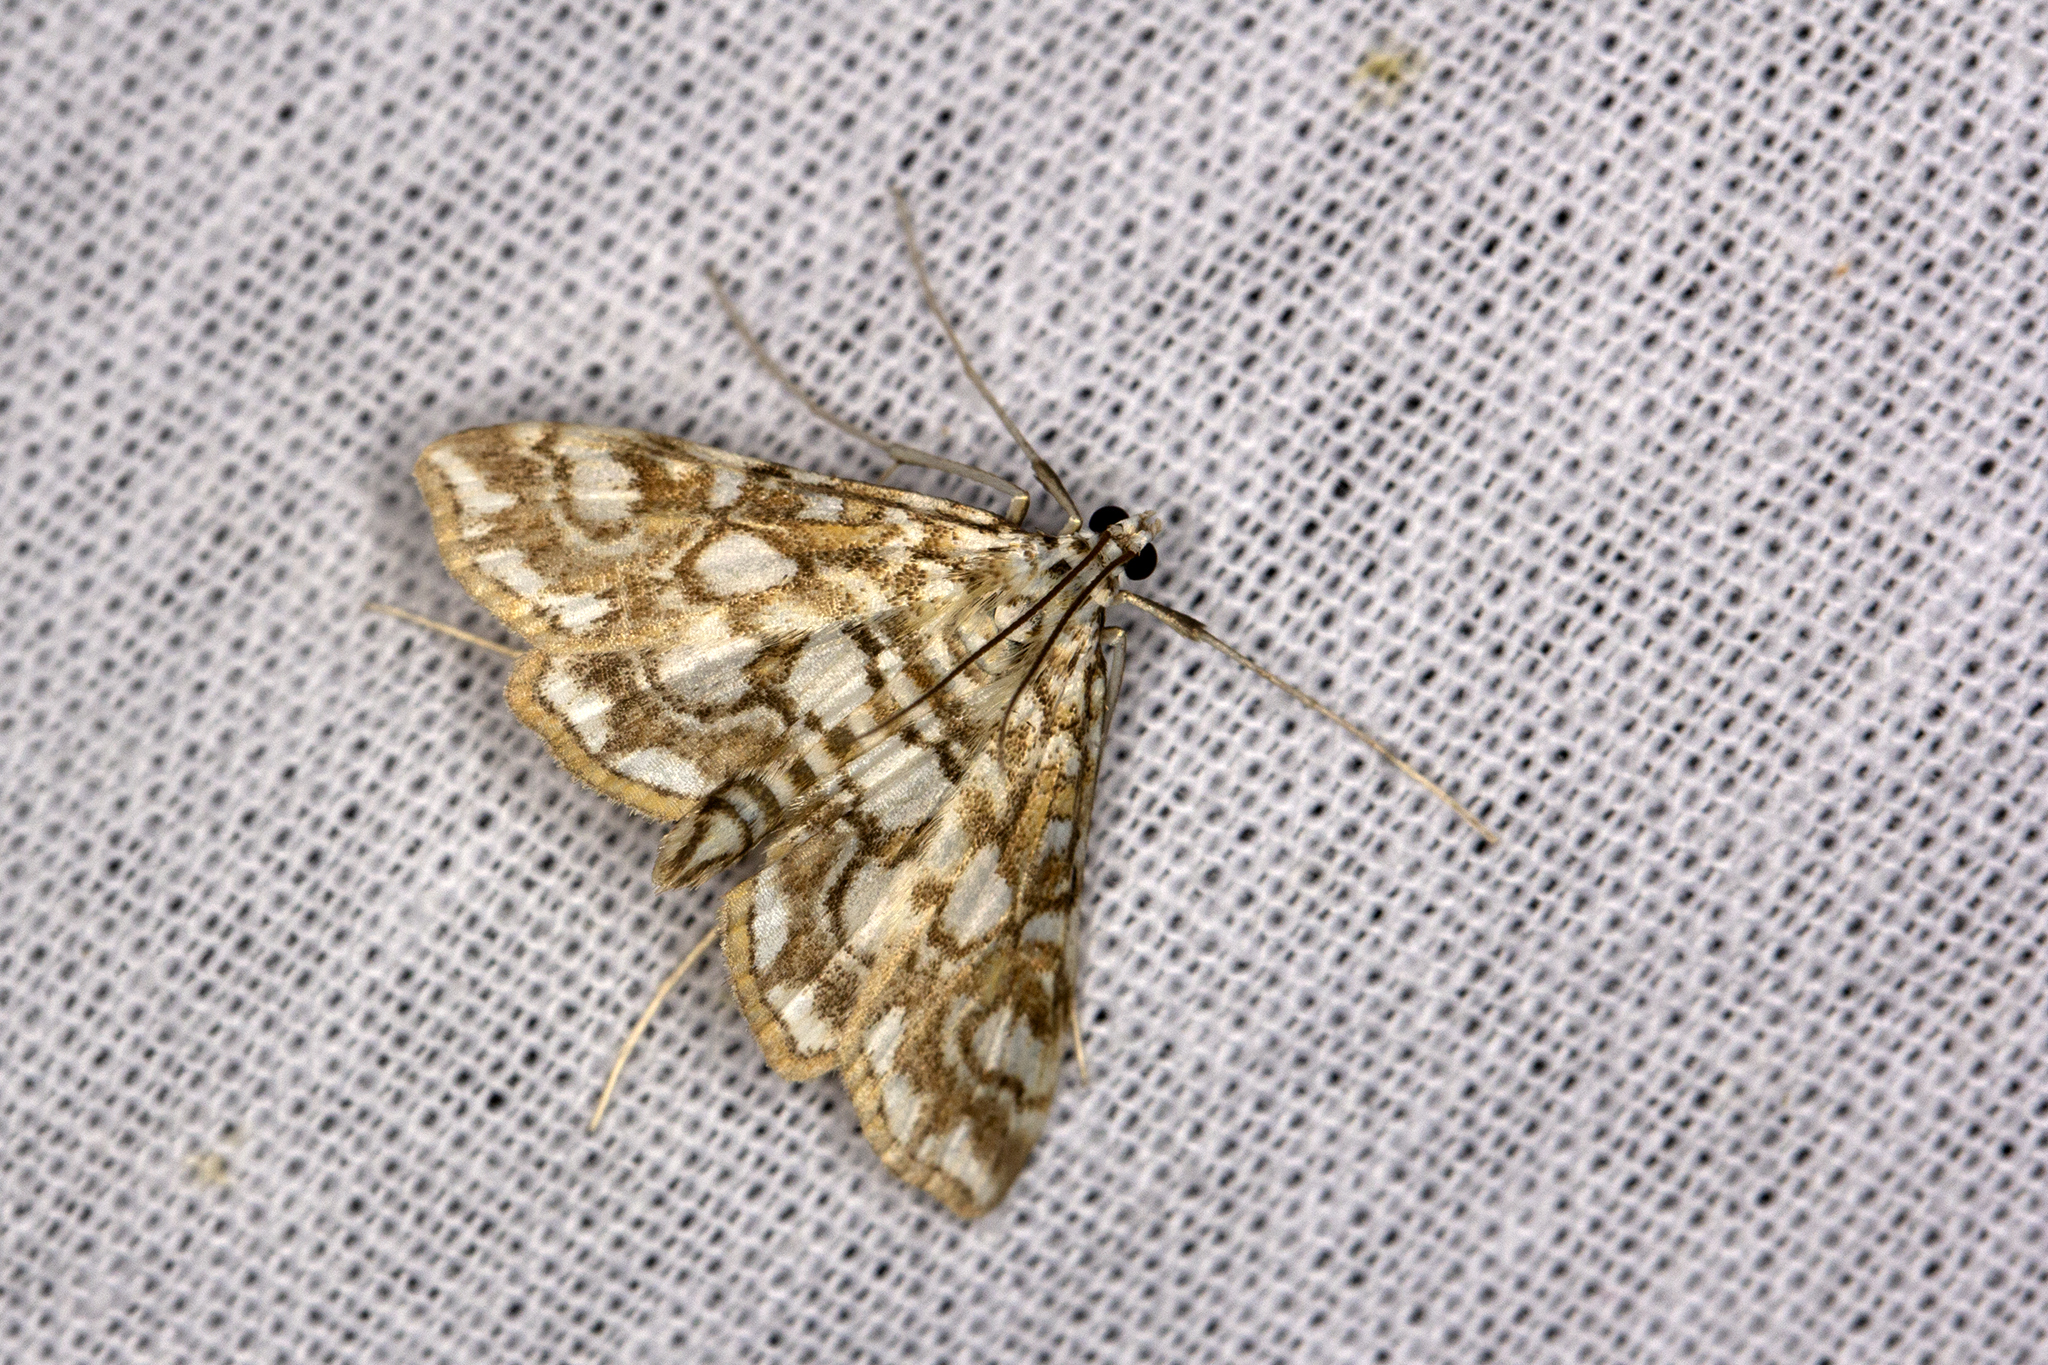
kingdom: Animalia
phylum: Arthropoda
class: Insecta
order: Lepidoptera
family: Crambidae
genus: Elophila
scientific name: Elophila nymphaeata
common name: Brown china-mark
